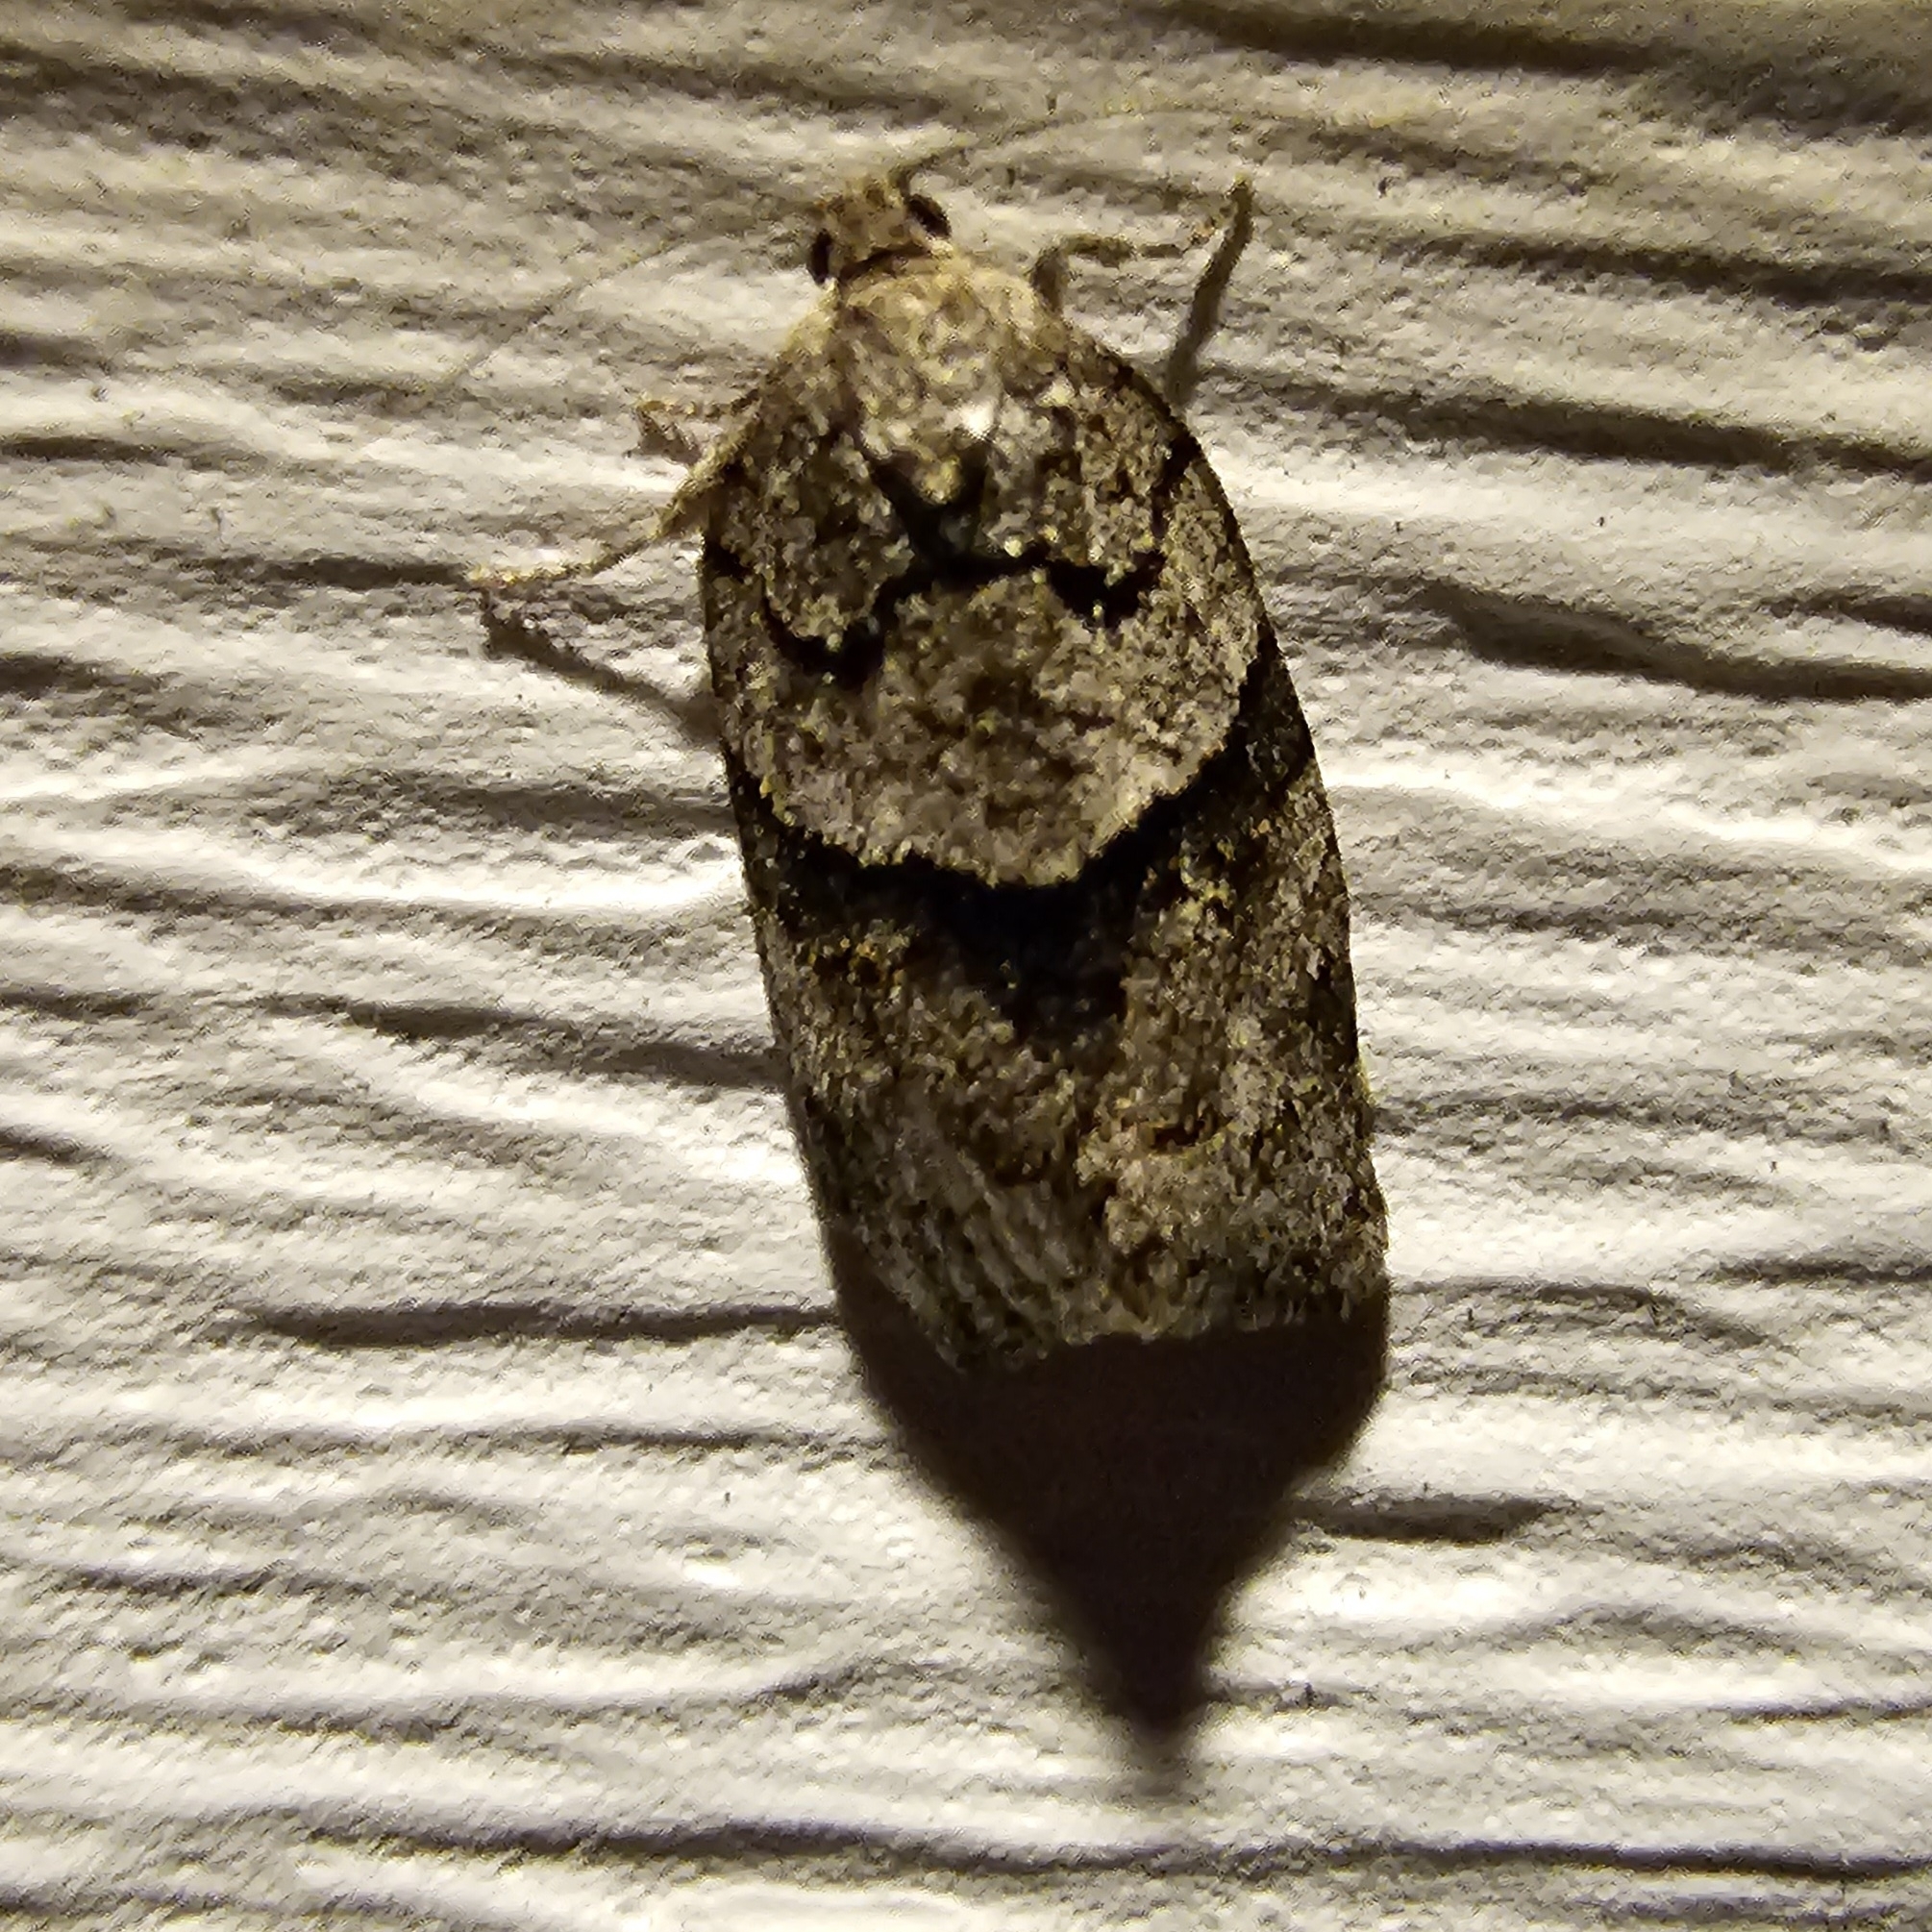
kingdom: Animalia
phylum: Arthropoda
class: Insecta
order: Lepidoptera
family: Tortricidae
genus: Syndemis
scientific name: Syndemis afflictana
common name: Gray leafroller moth
